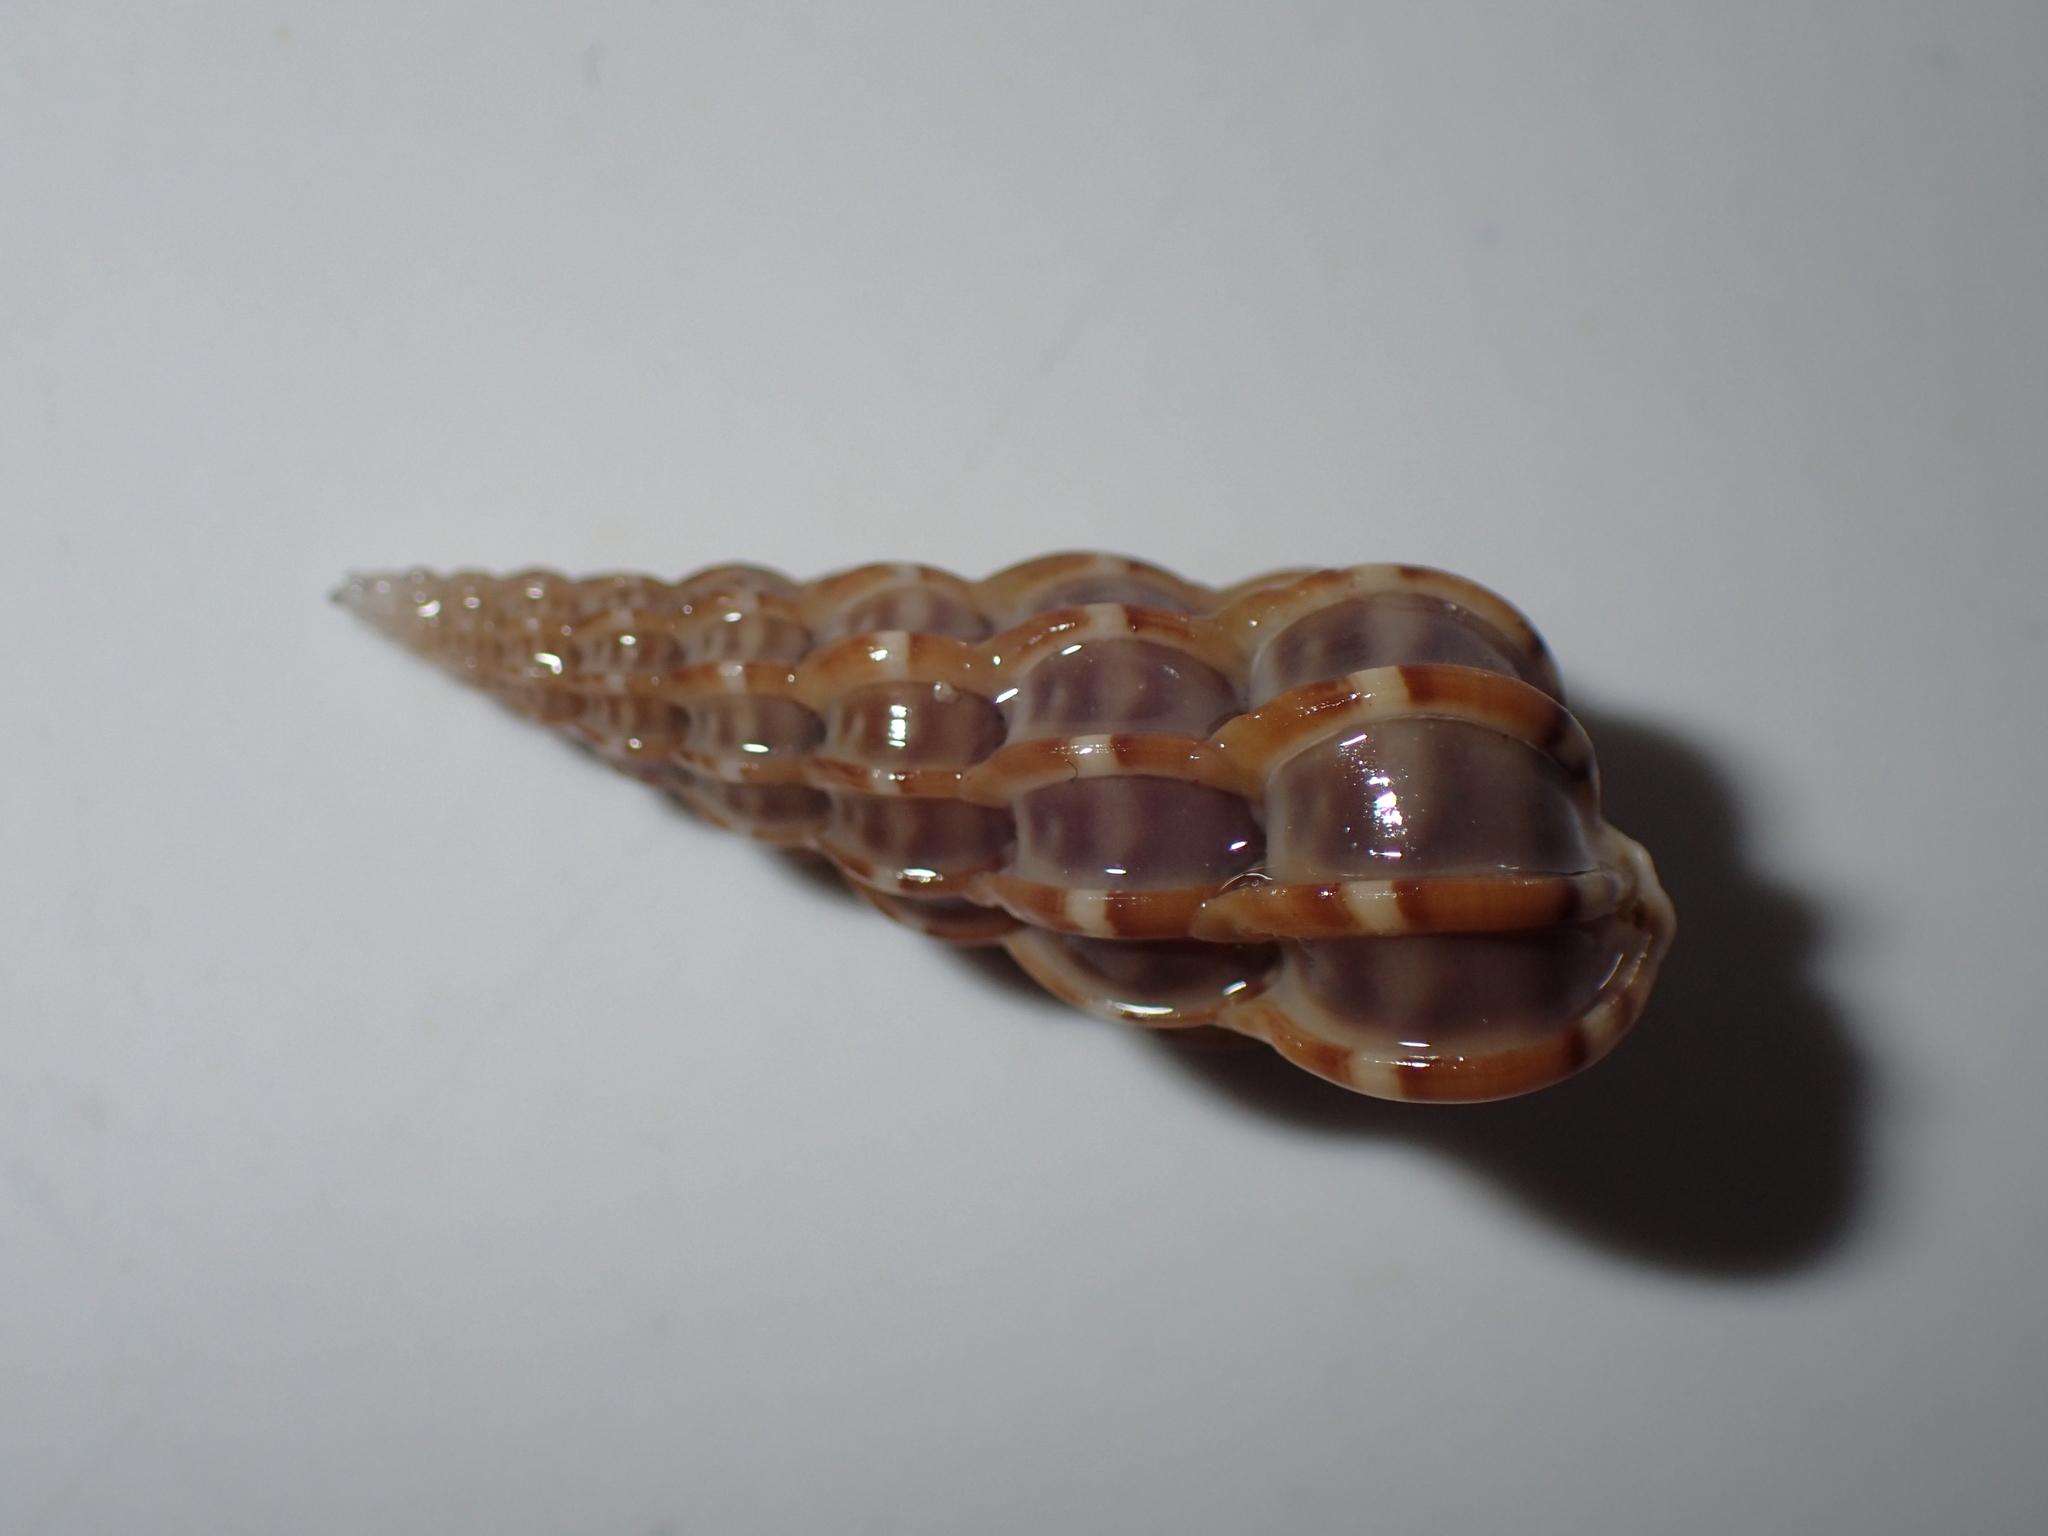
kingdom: Animalia
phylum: Mollusca
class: Gastropoda
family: Epitoniidae
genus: Epitonium
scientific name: Epitonium clathrus
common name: Common wentletrap
